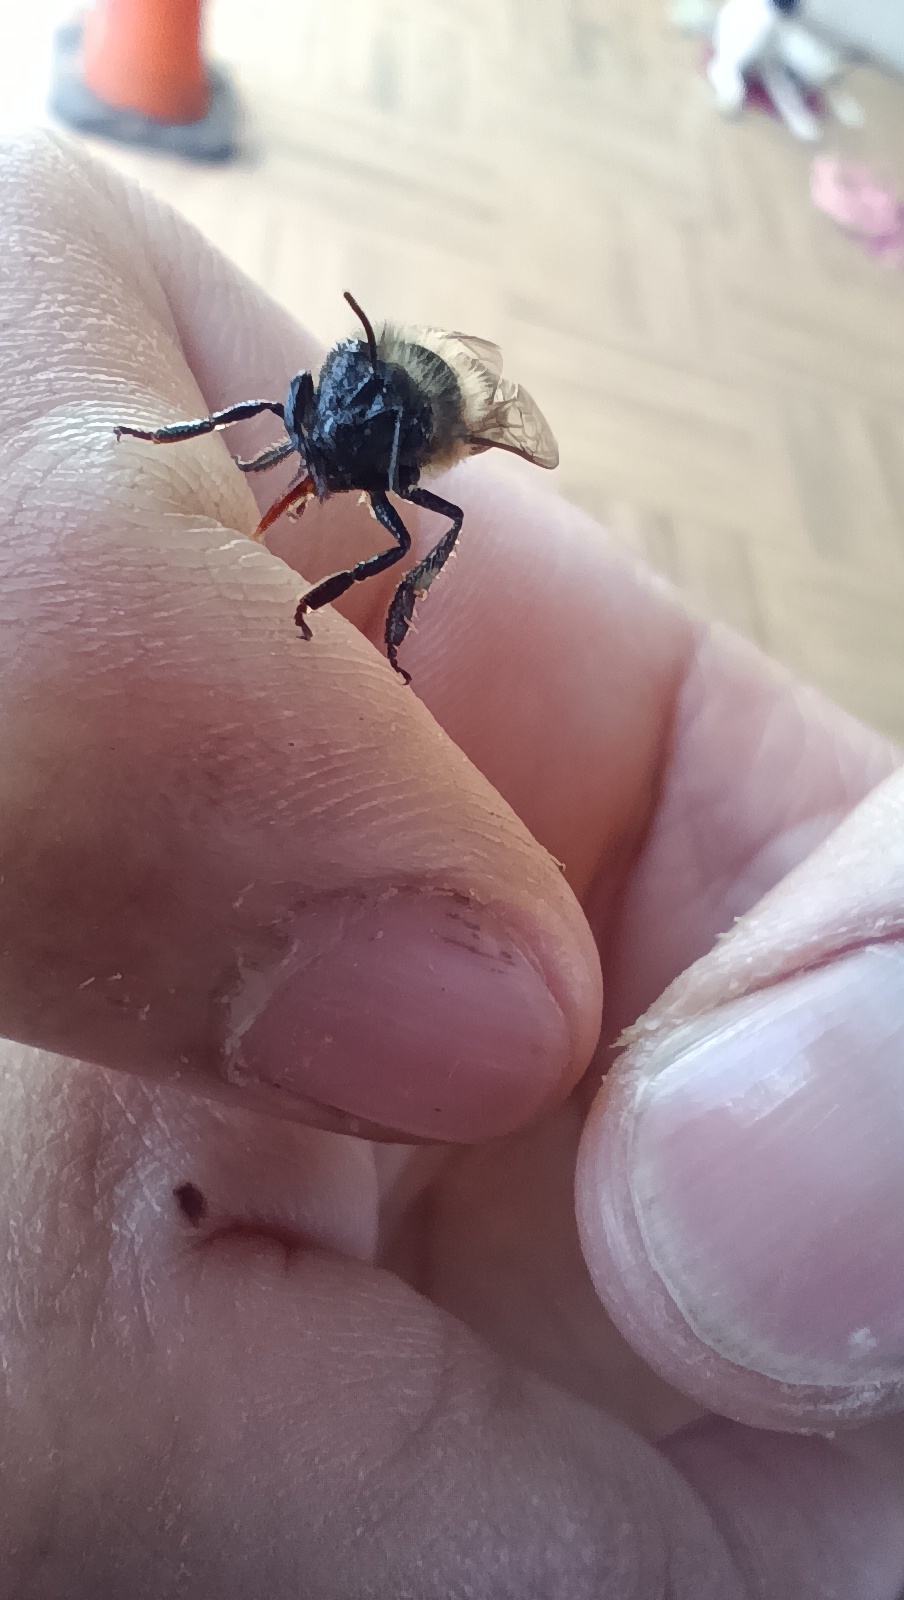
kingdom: Animalia
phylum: Arthropoda
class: Insecta
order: Hymenoptera
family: Apidae
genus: Apis
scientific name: Apis mellifera
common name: Honey bee
